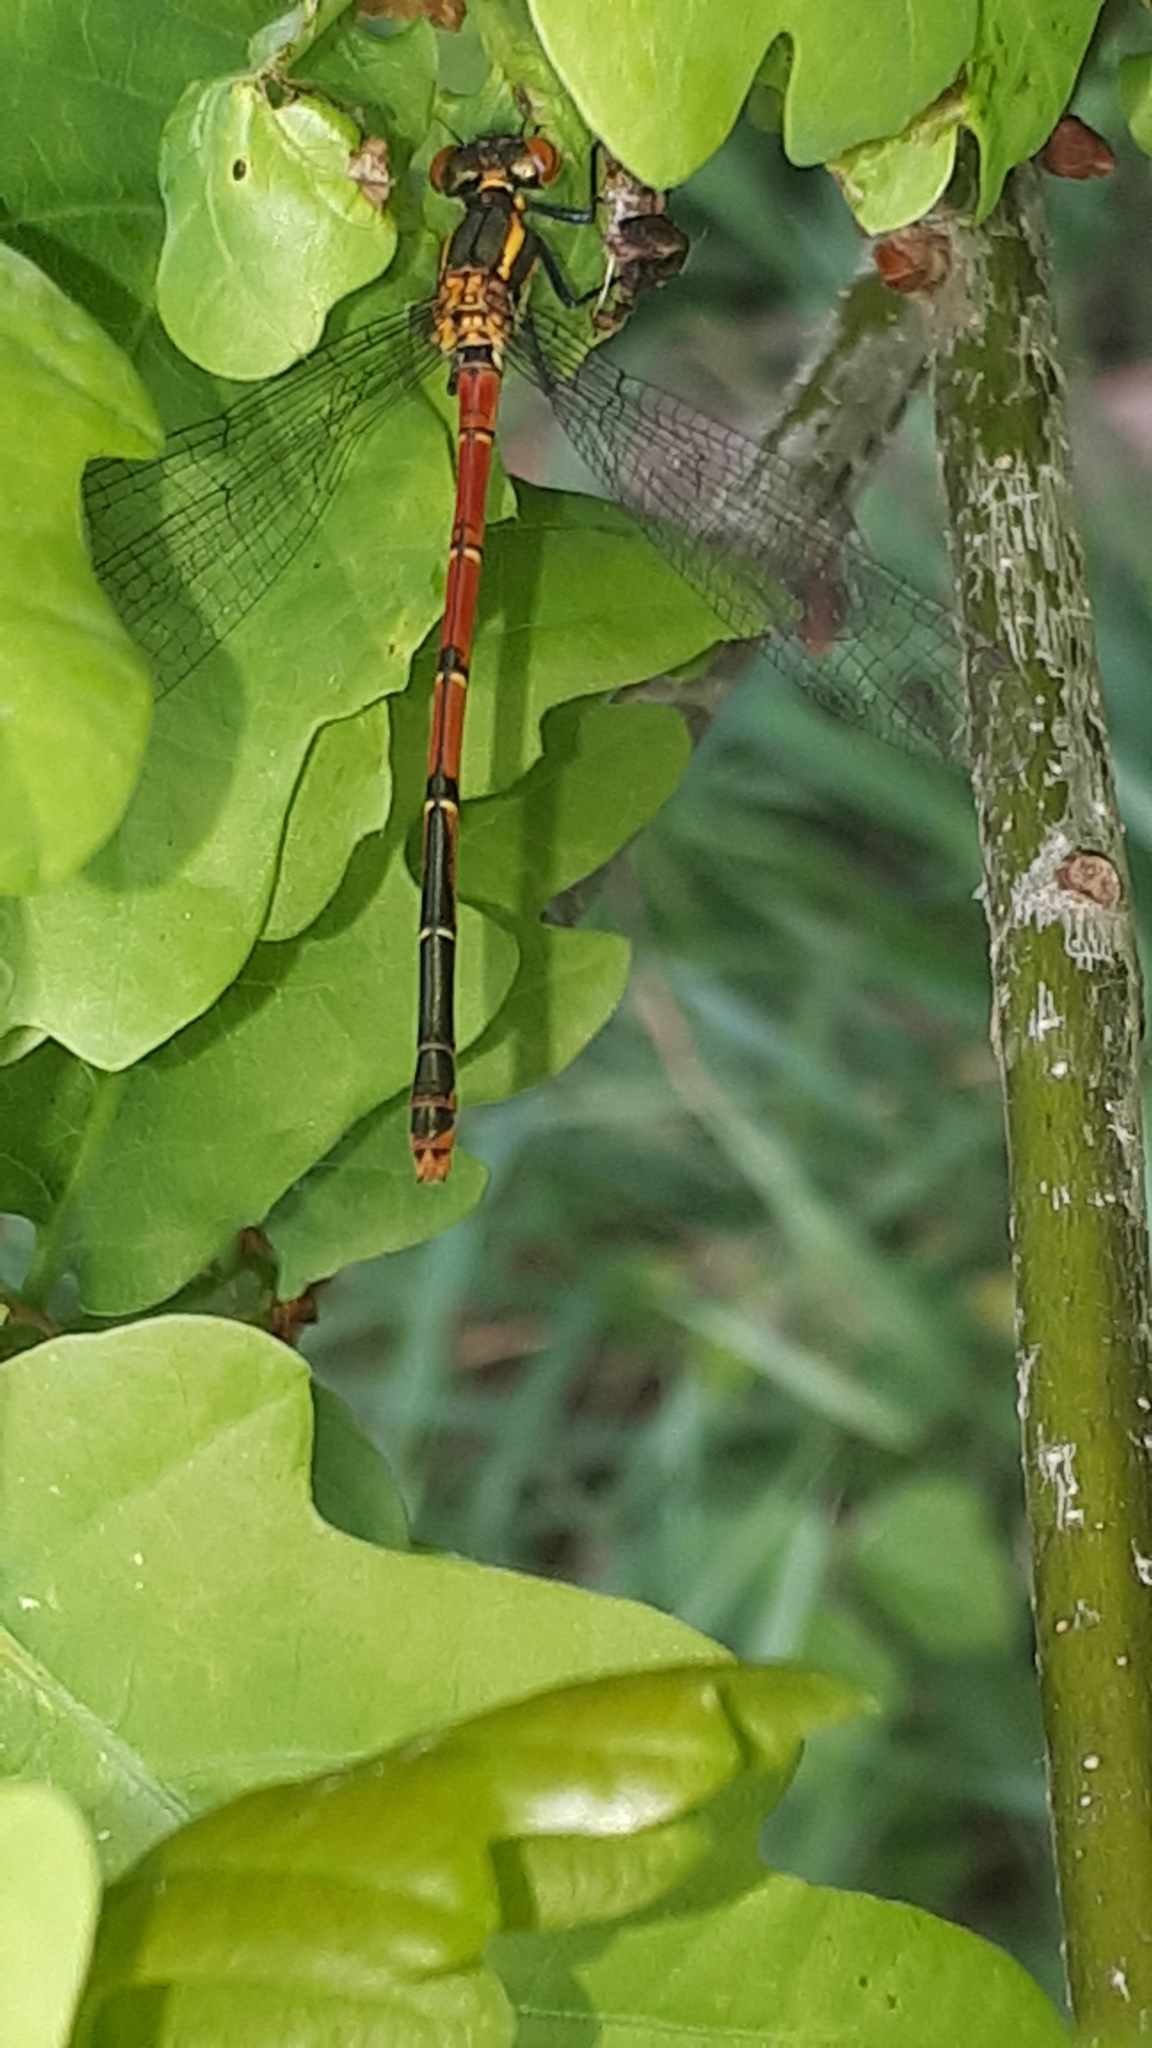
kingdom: Animalia
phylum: Arthropoda
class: Insecta
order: Odonata
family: Coenagrionidae
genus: Pyrrhosoma
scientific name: Pyrrhosoma nymphula
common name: Large red damsel
